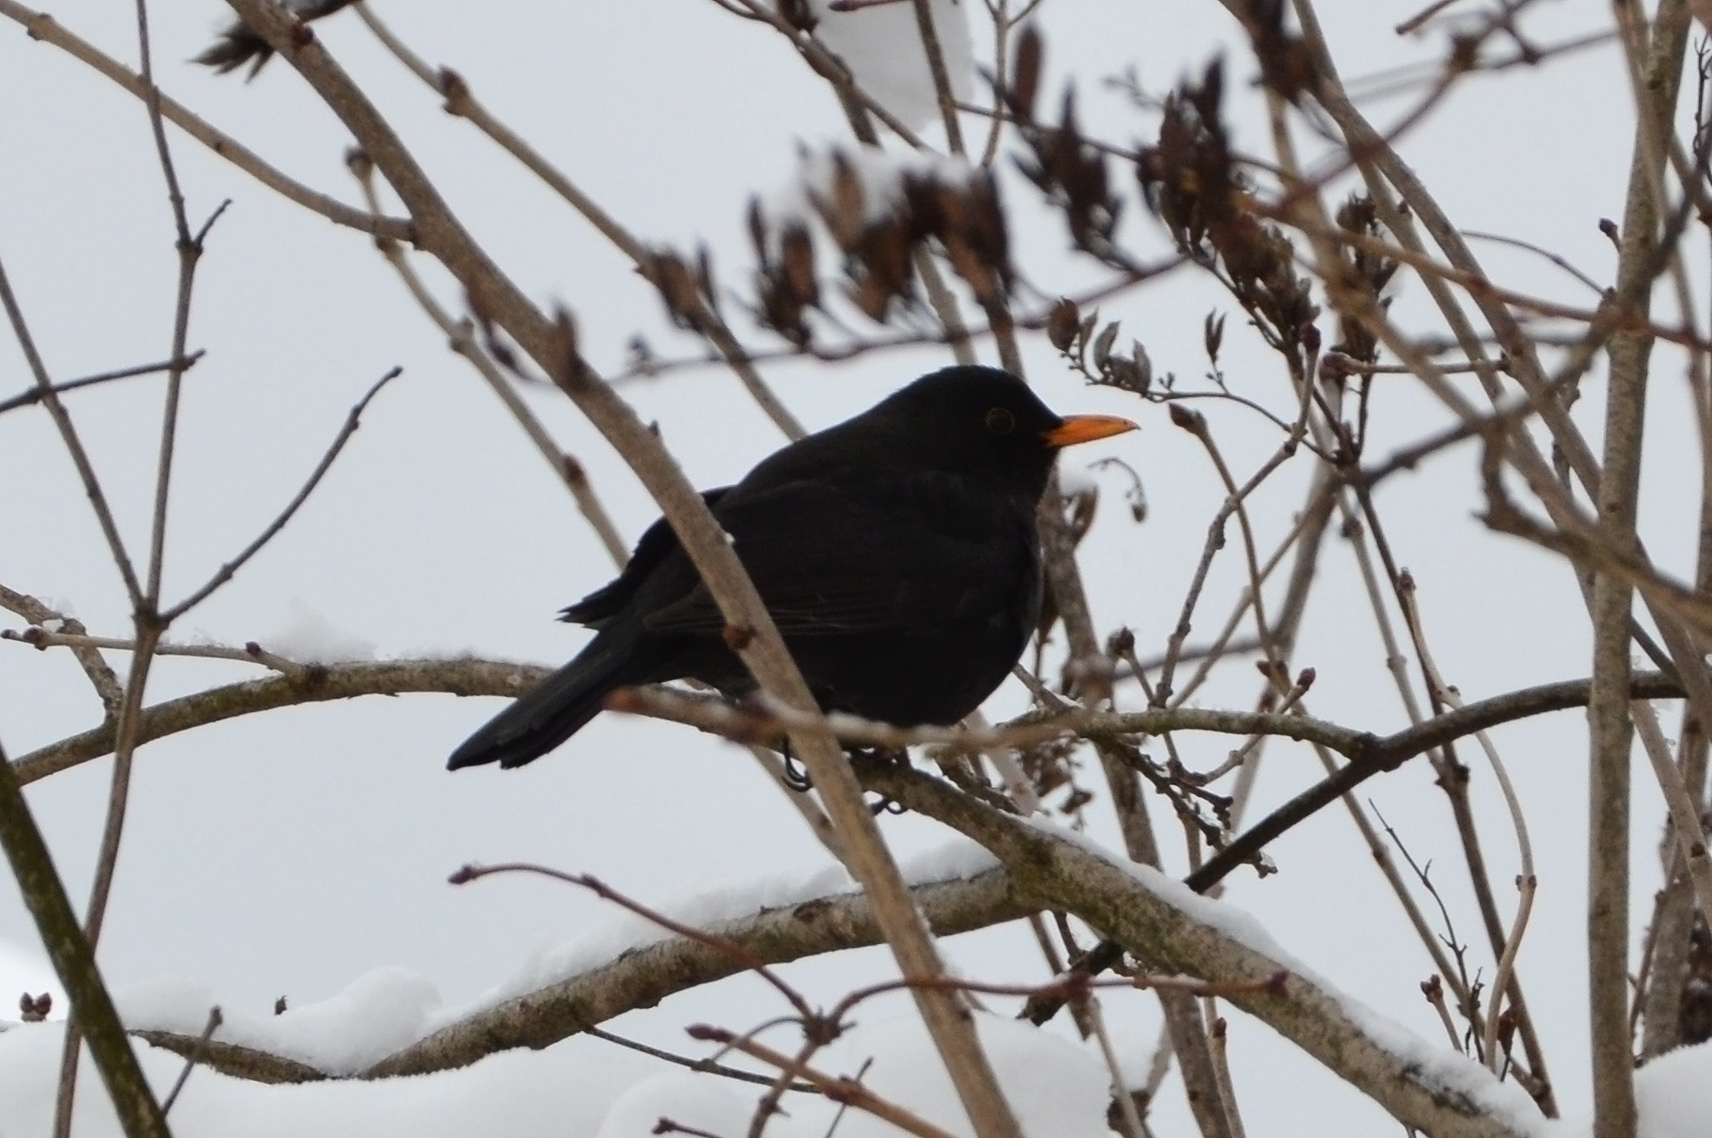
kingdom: Animalia
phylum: Chordata
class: Aves
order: Passeriformes
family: Turdidae
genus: Turdus
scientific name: Turdus merula
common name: Common blackbird
